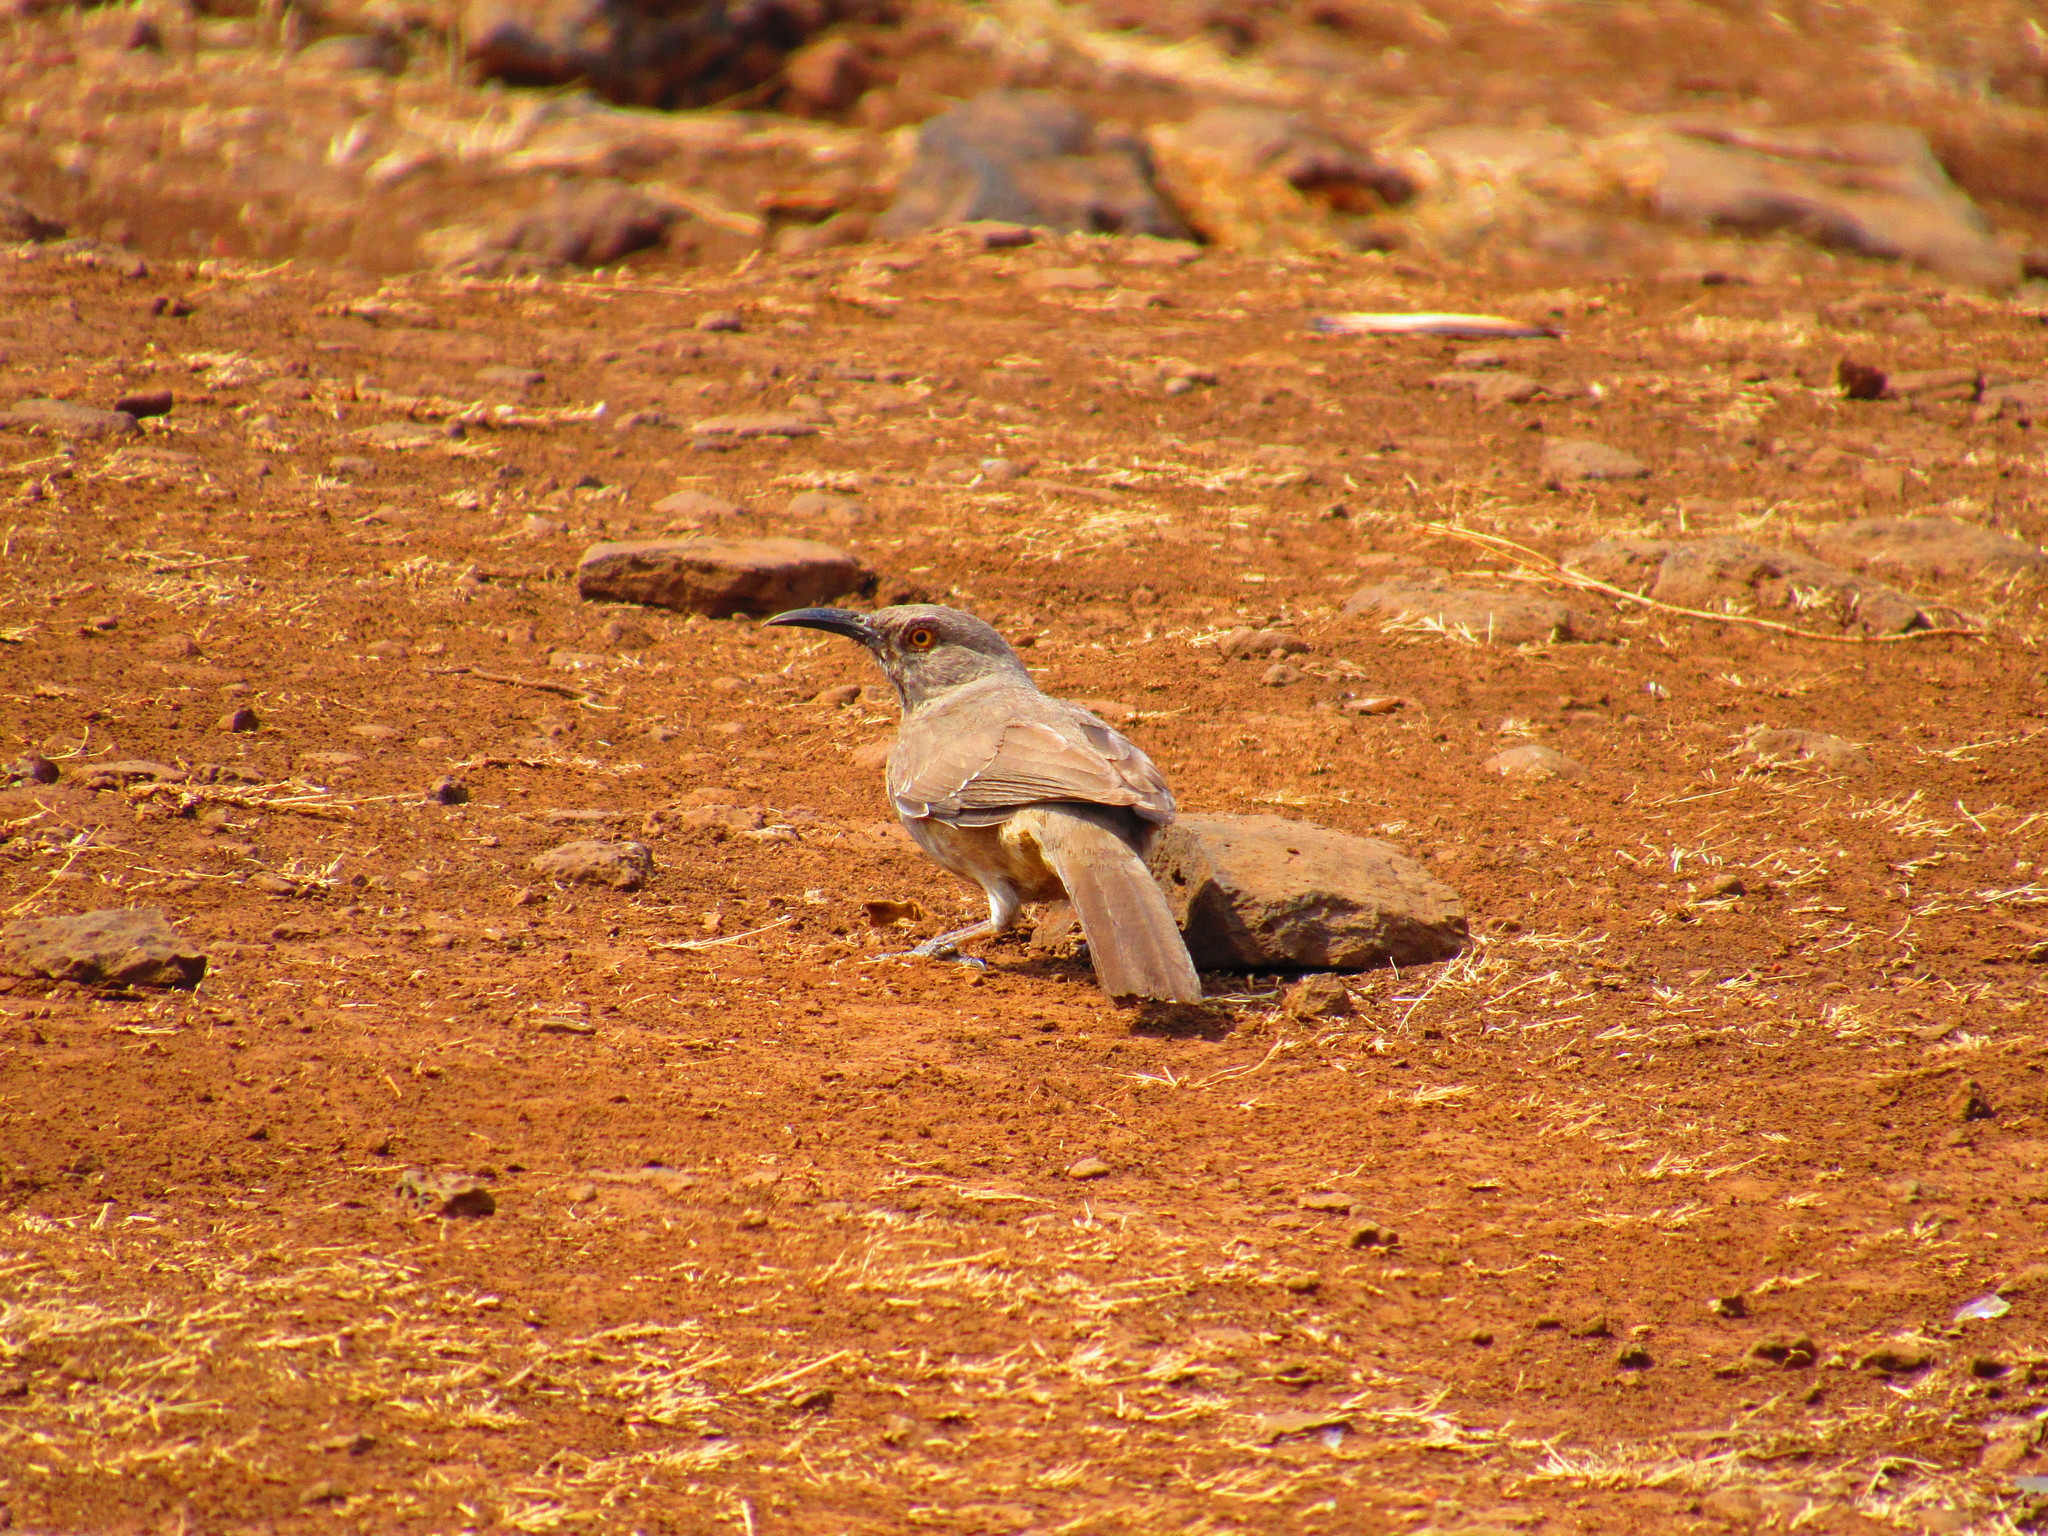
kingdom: Animalia
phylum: Chordata
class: Aves
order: Passeriformes
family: Mimidae
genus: Toxostoma
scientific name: Toxostoma curvirostre
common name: Curve-billed thrasher
